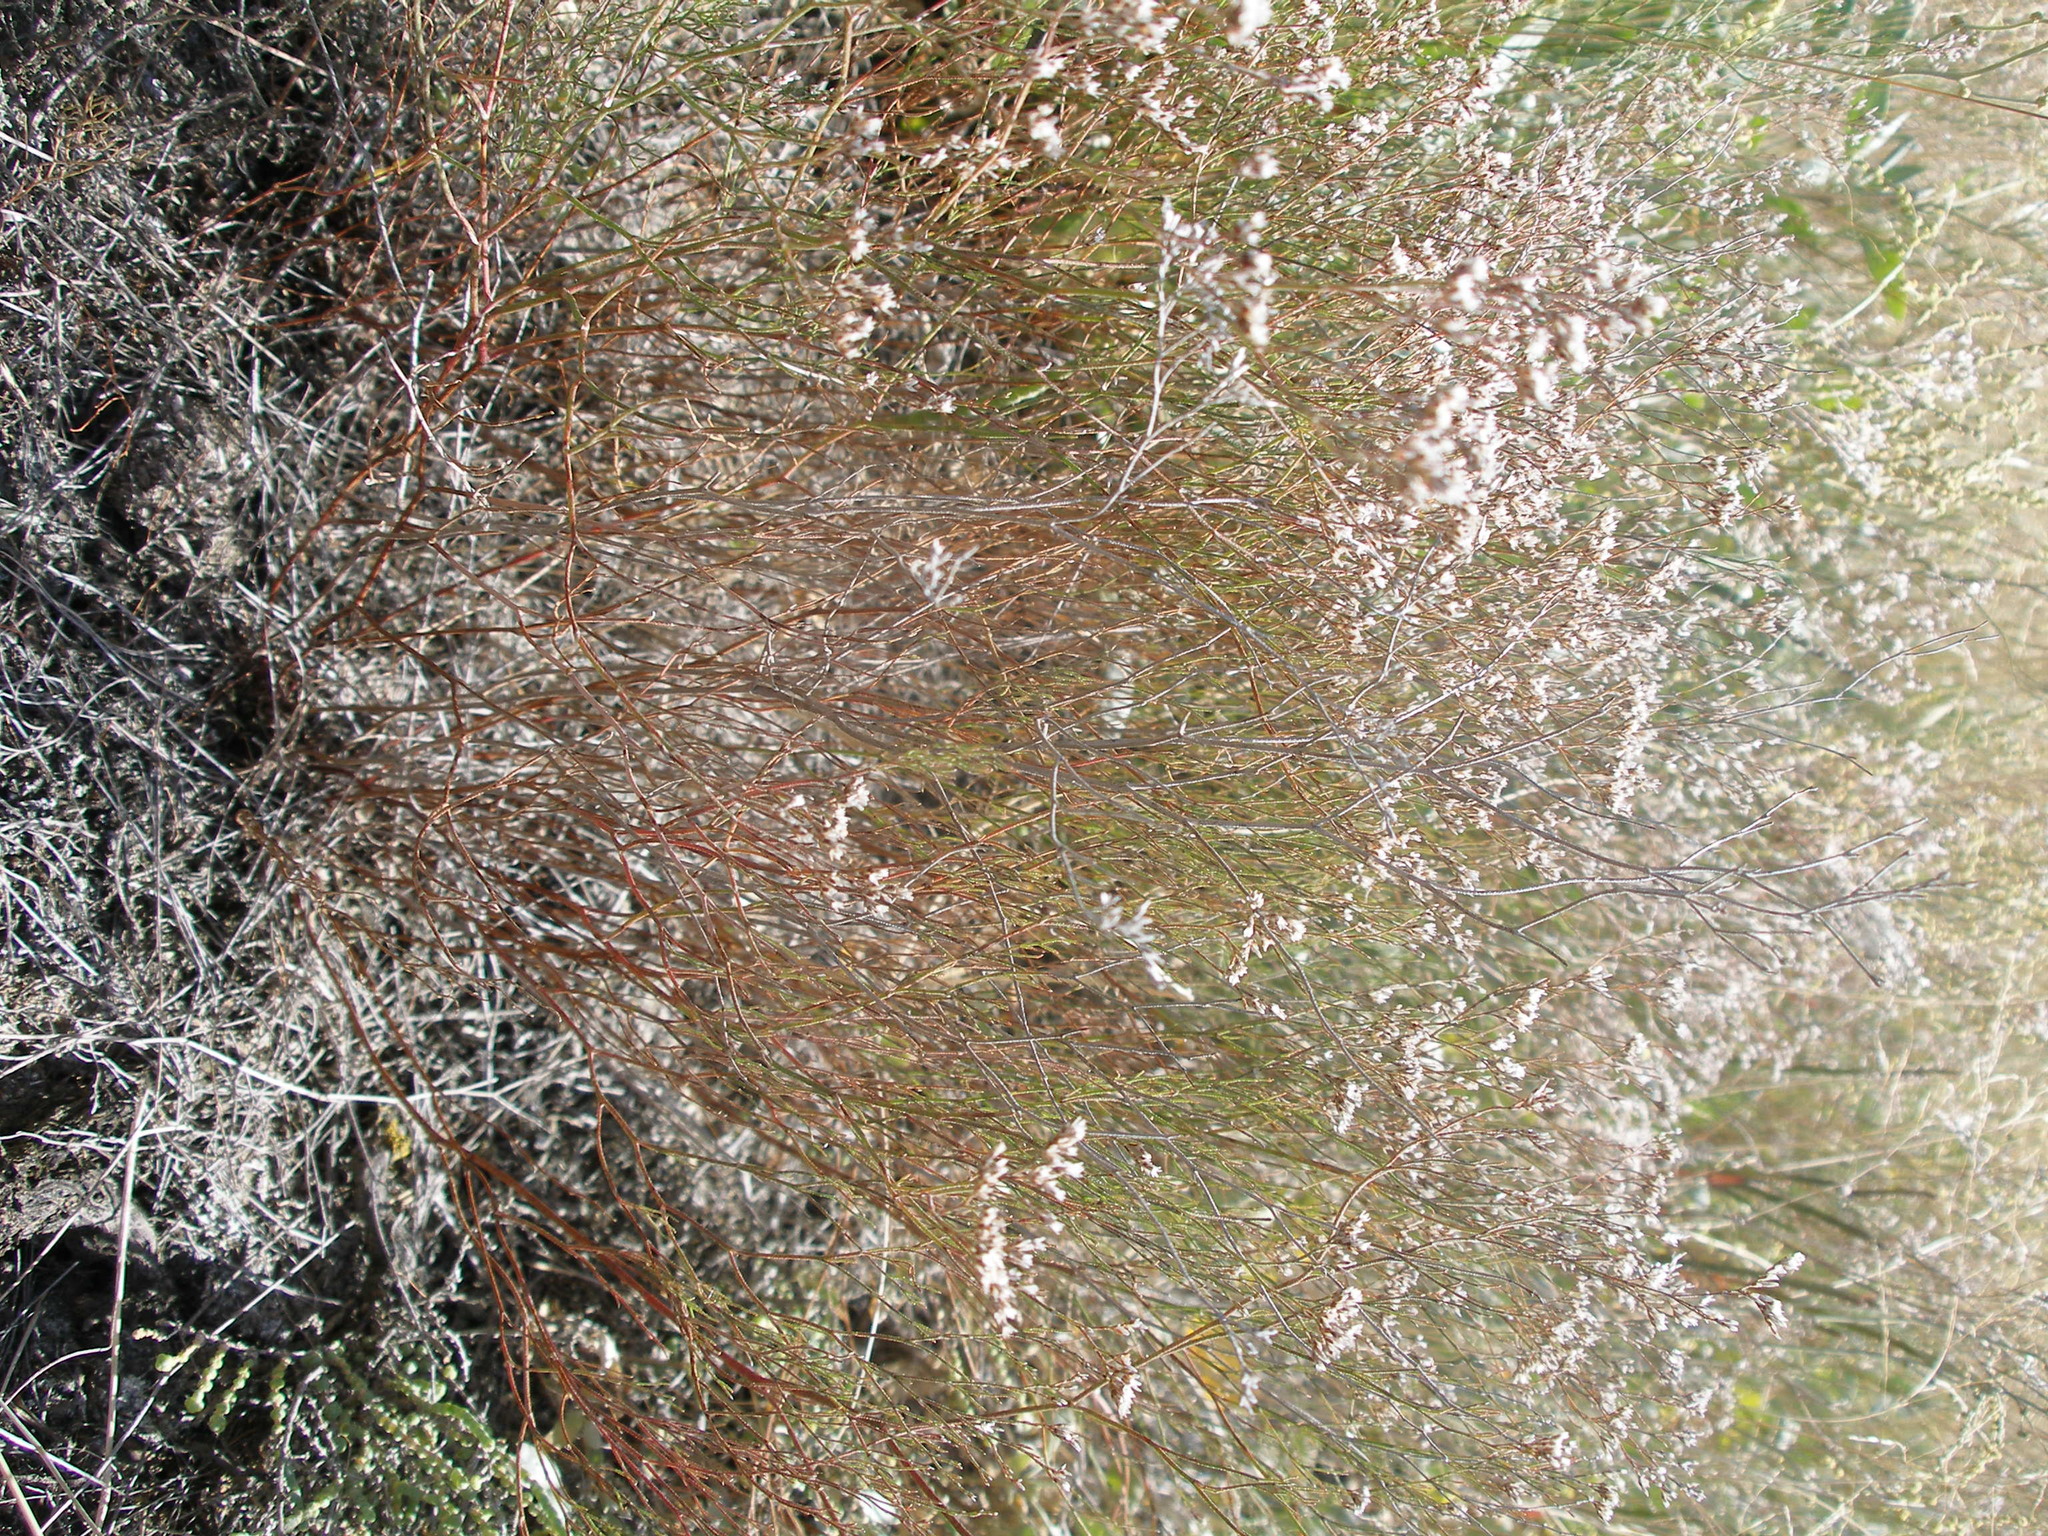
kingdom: Plantae
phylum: Tracheophyta
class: Magnoliopsida
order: Caryophyllales
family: Plumbaginaceae
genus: Limonium
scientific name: Limonium bellidifolium
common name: Matted sea-lavender
